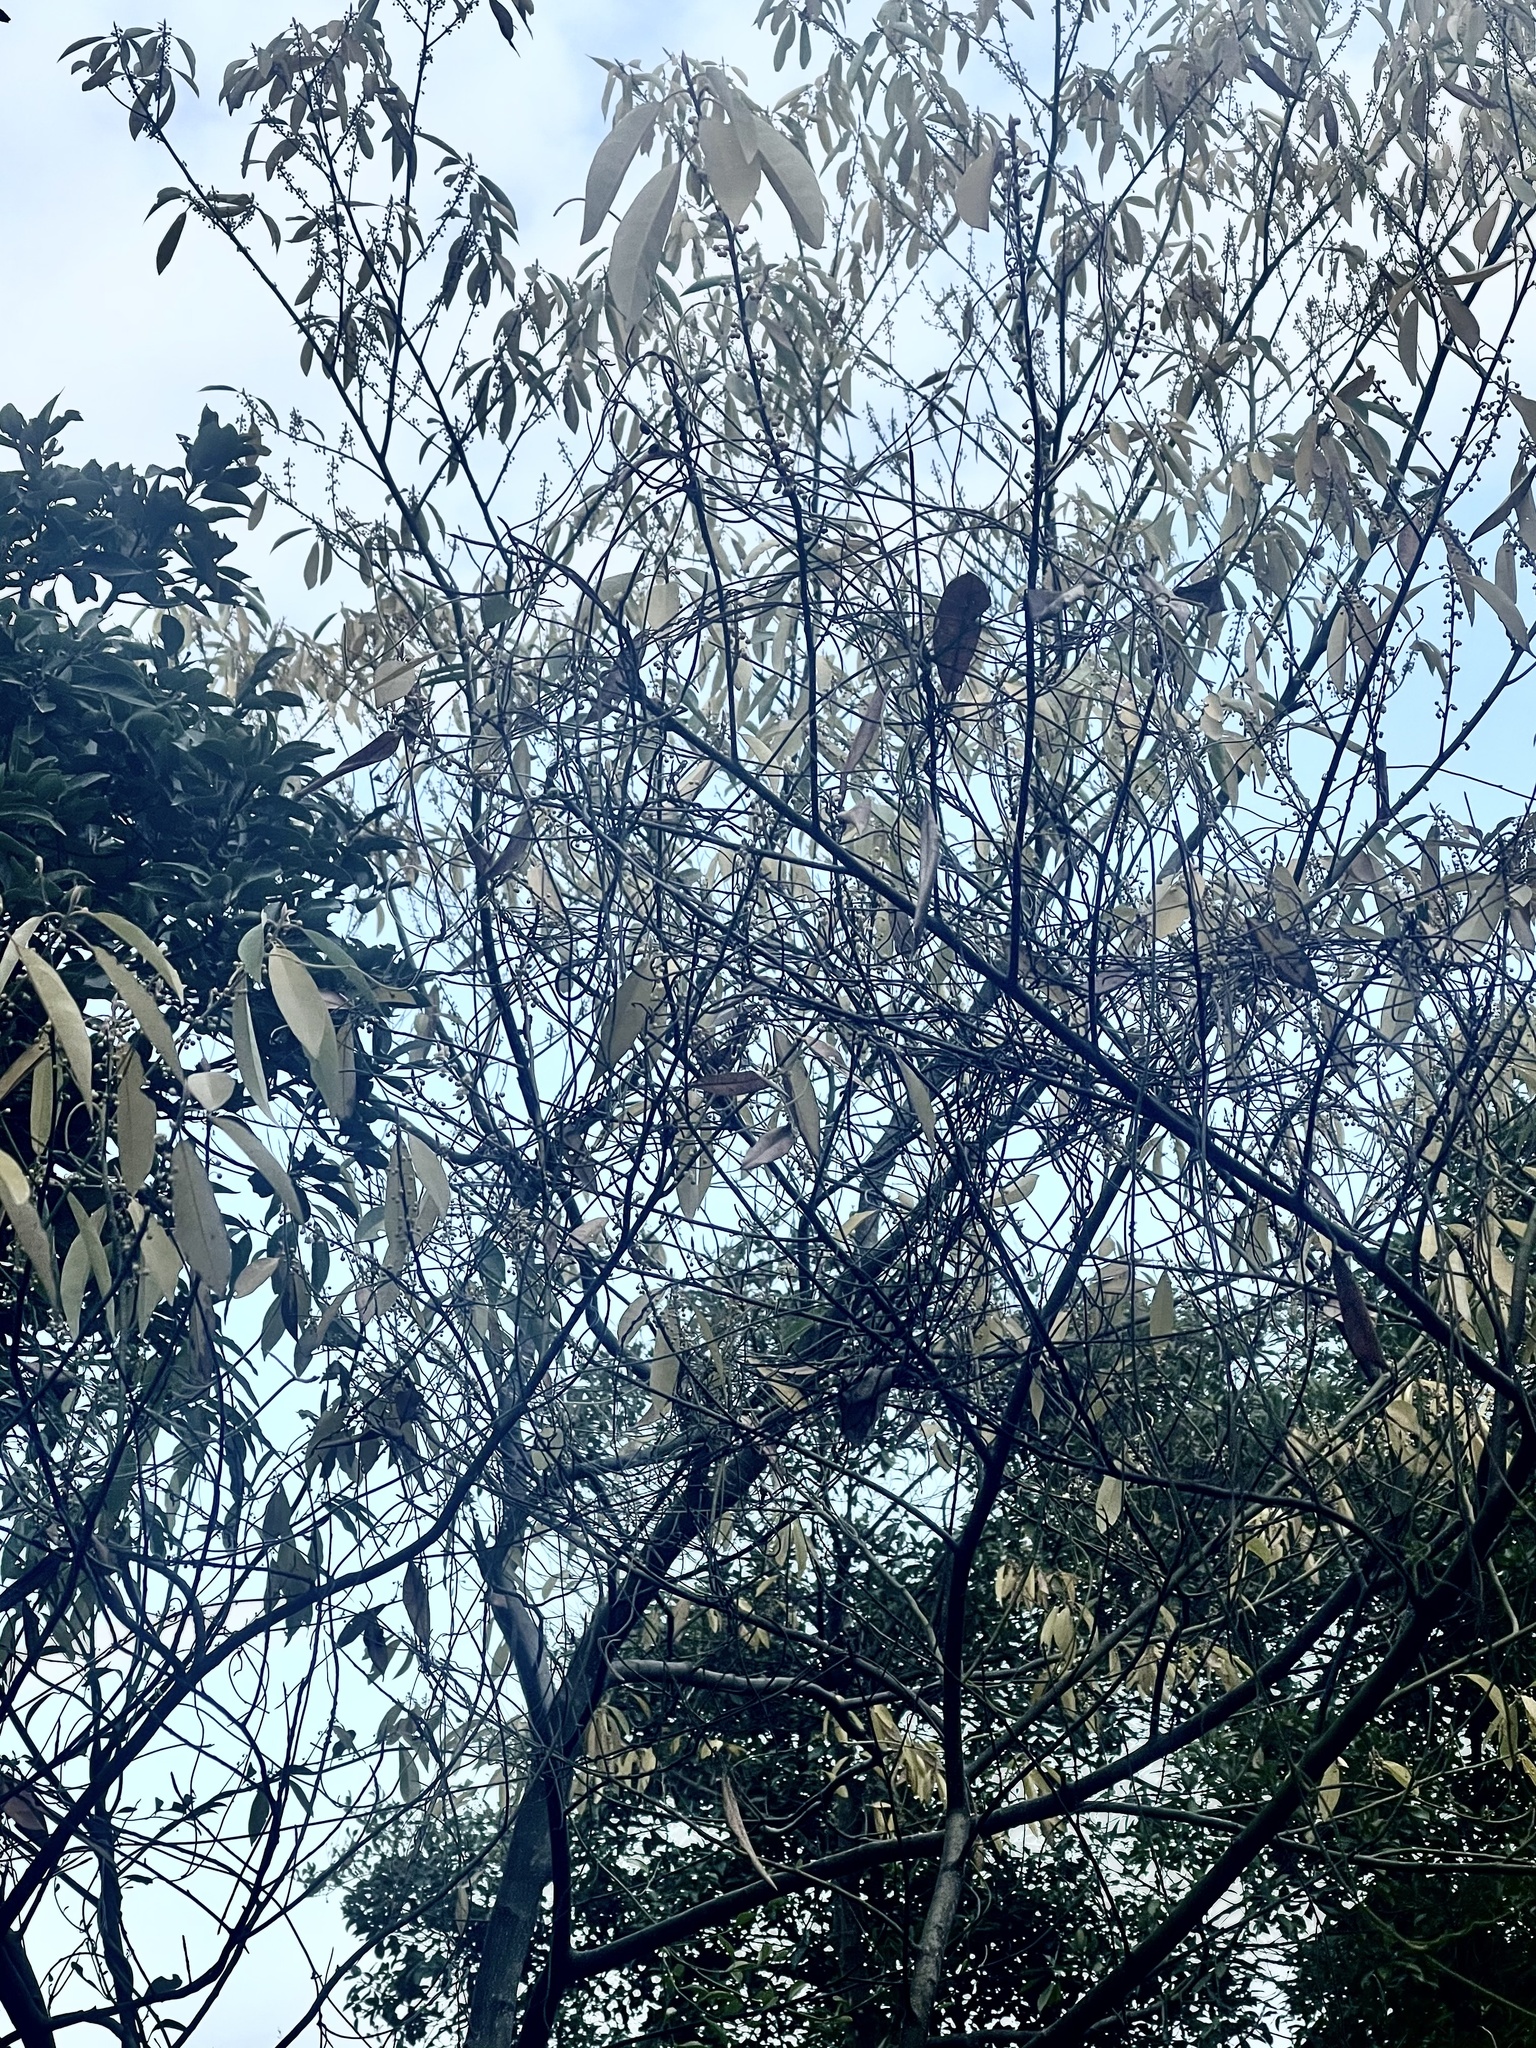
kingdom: Plantae
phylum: Tracheophyta
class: Magnoliopsida
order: Laurales
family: Lauraceae
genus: Litsea
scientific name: Litsea cubeba
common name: Mountain-pepper
